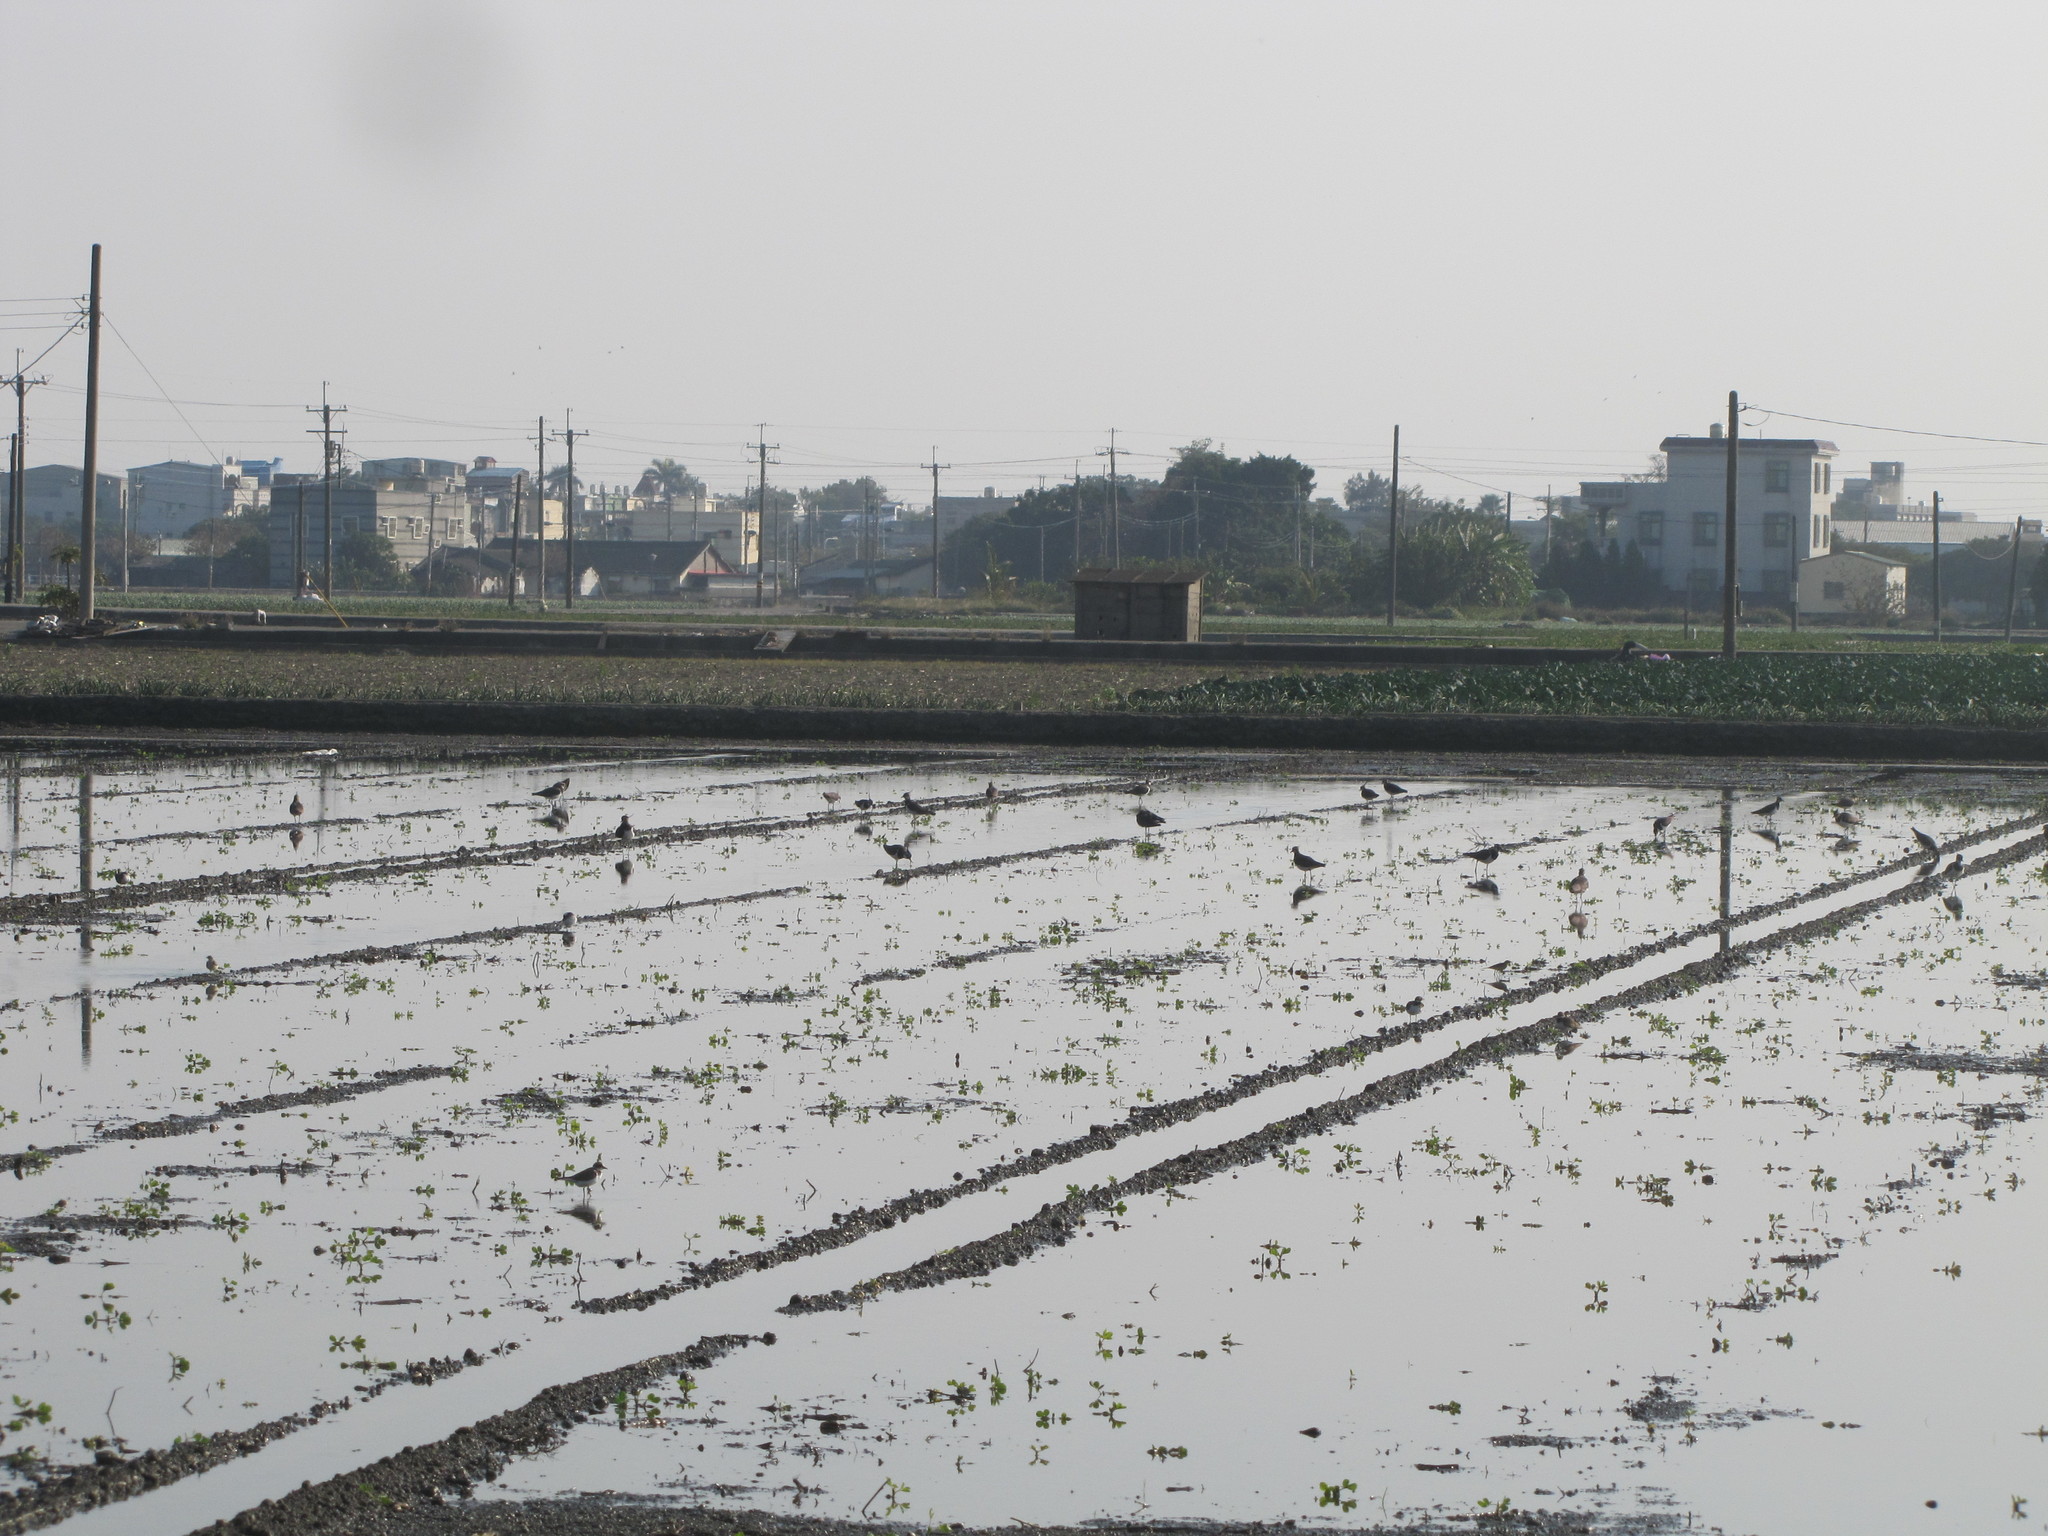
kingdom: Animalia
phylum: Chordata
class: Aves
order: Charadriiformes
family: Charadriidae
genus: Vanellus
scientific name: Vanellus vanellus
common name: Northern lapwing
